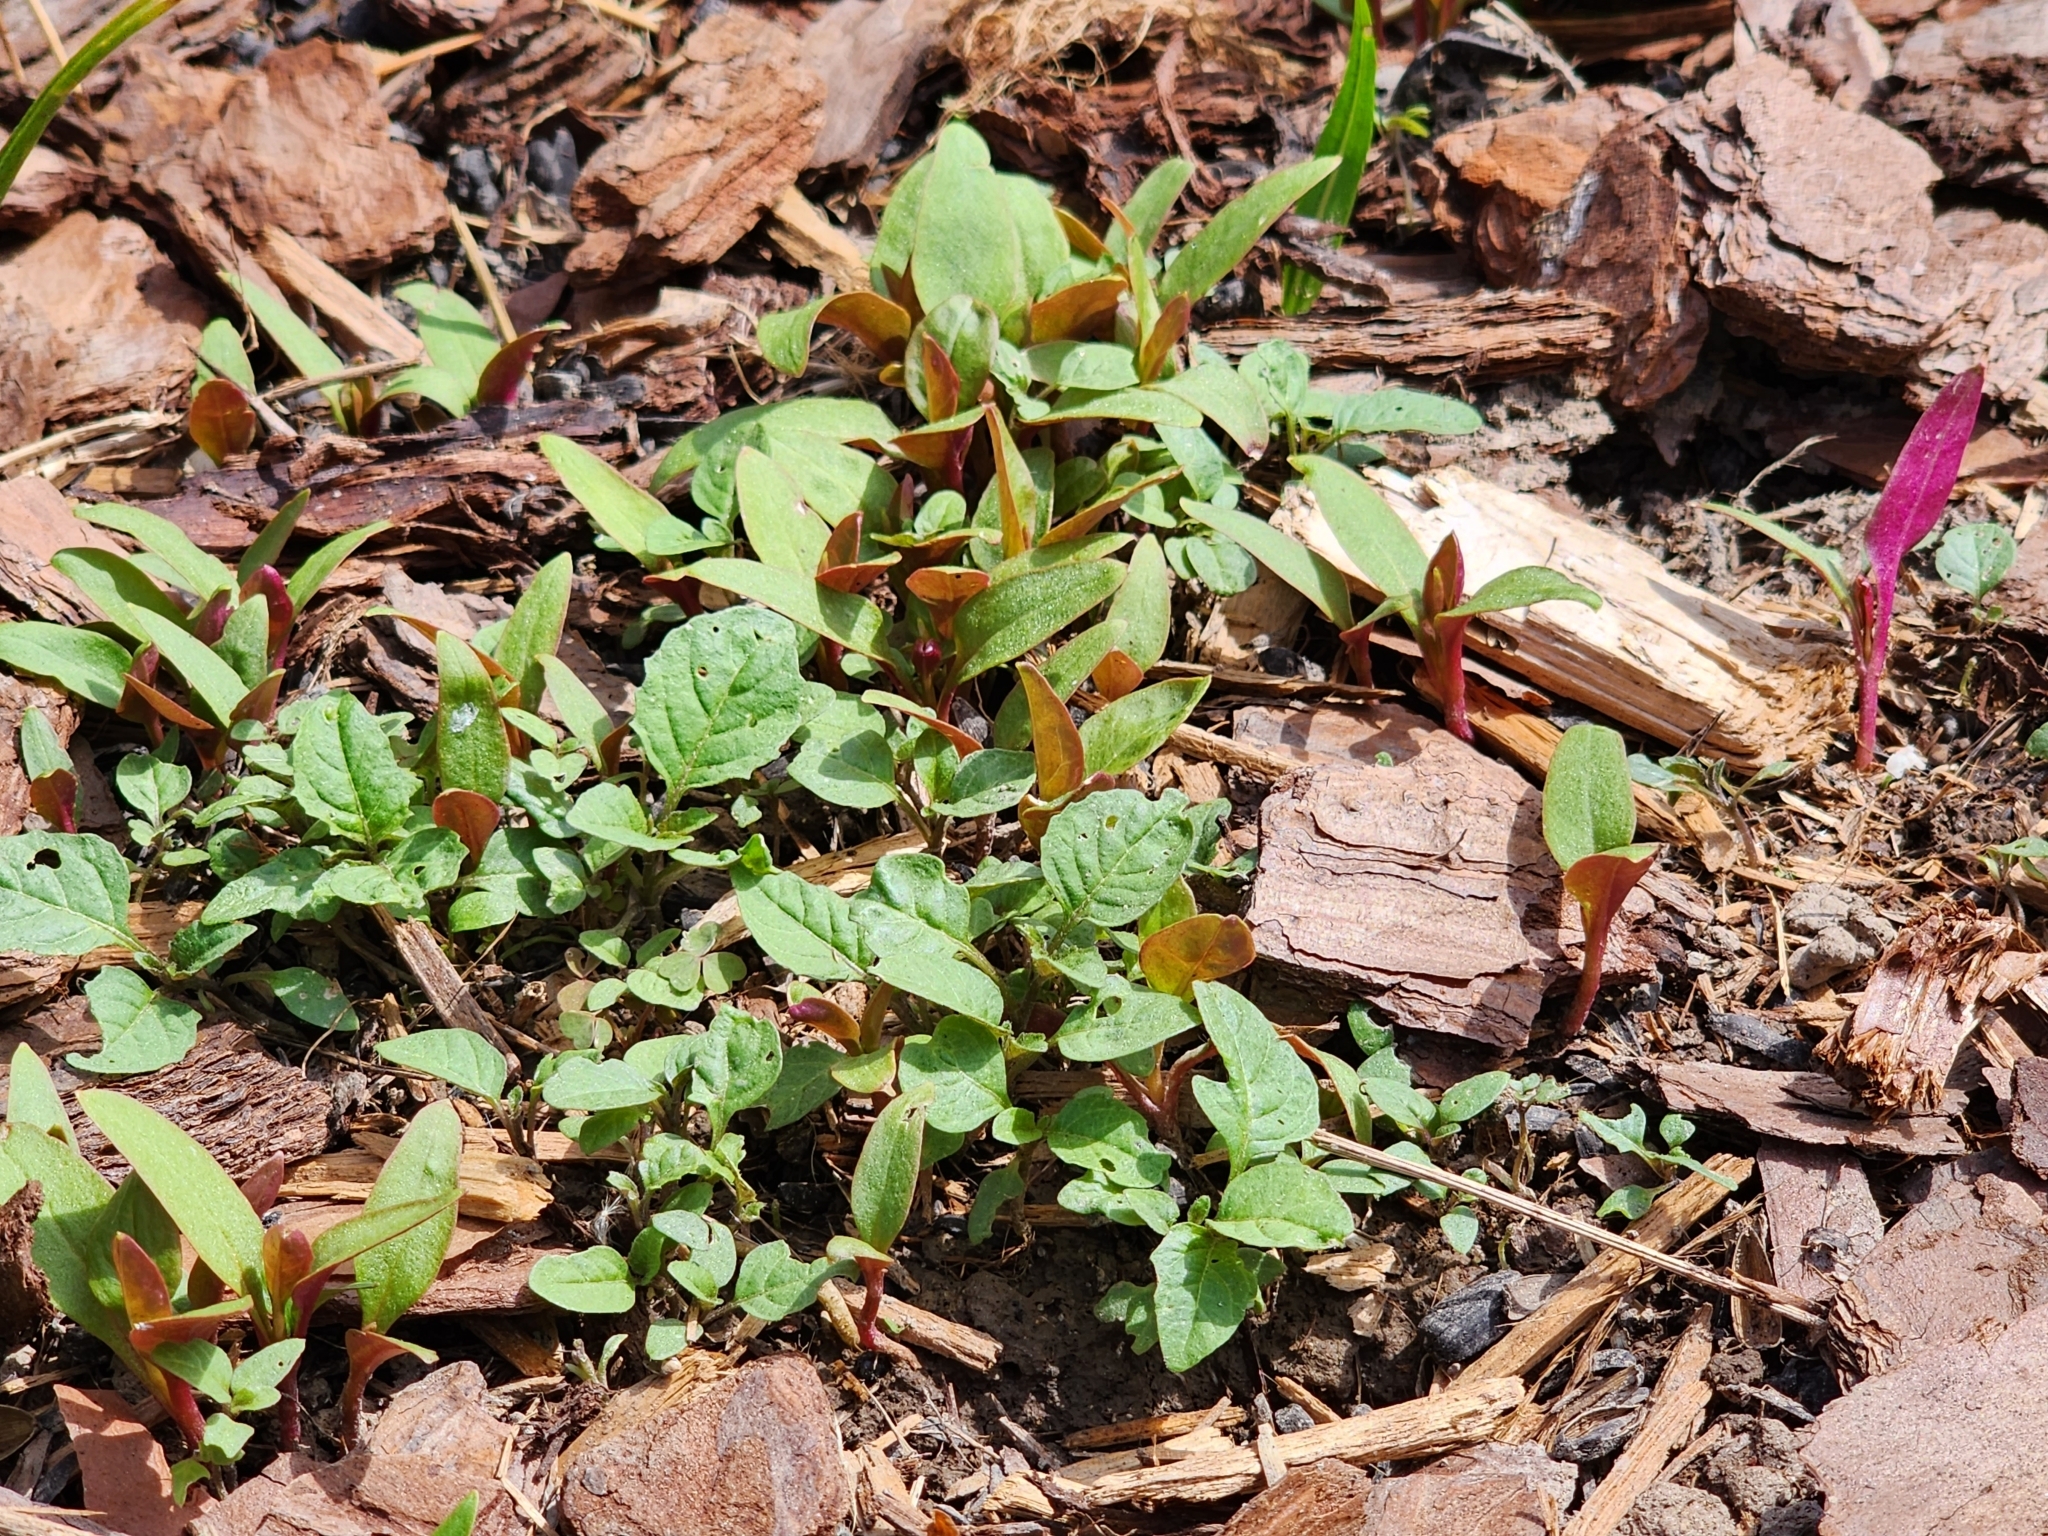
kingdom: Plantae
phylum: Tracheophyta
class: Magnoliopsida
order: Caryophyllales
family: Phytolaccaceae
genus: Phytolacca
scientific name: Phytolacca americana
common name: American pokeweed
